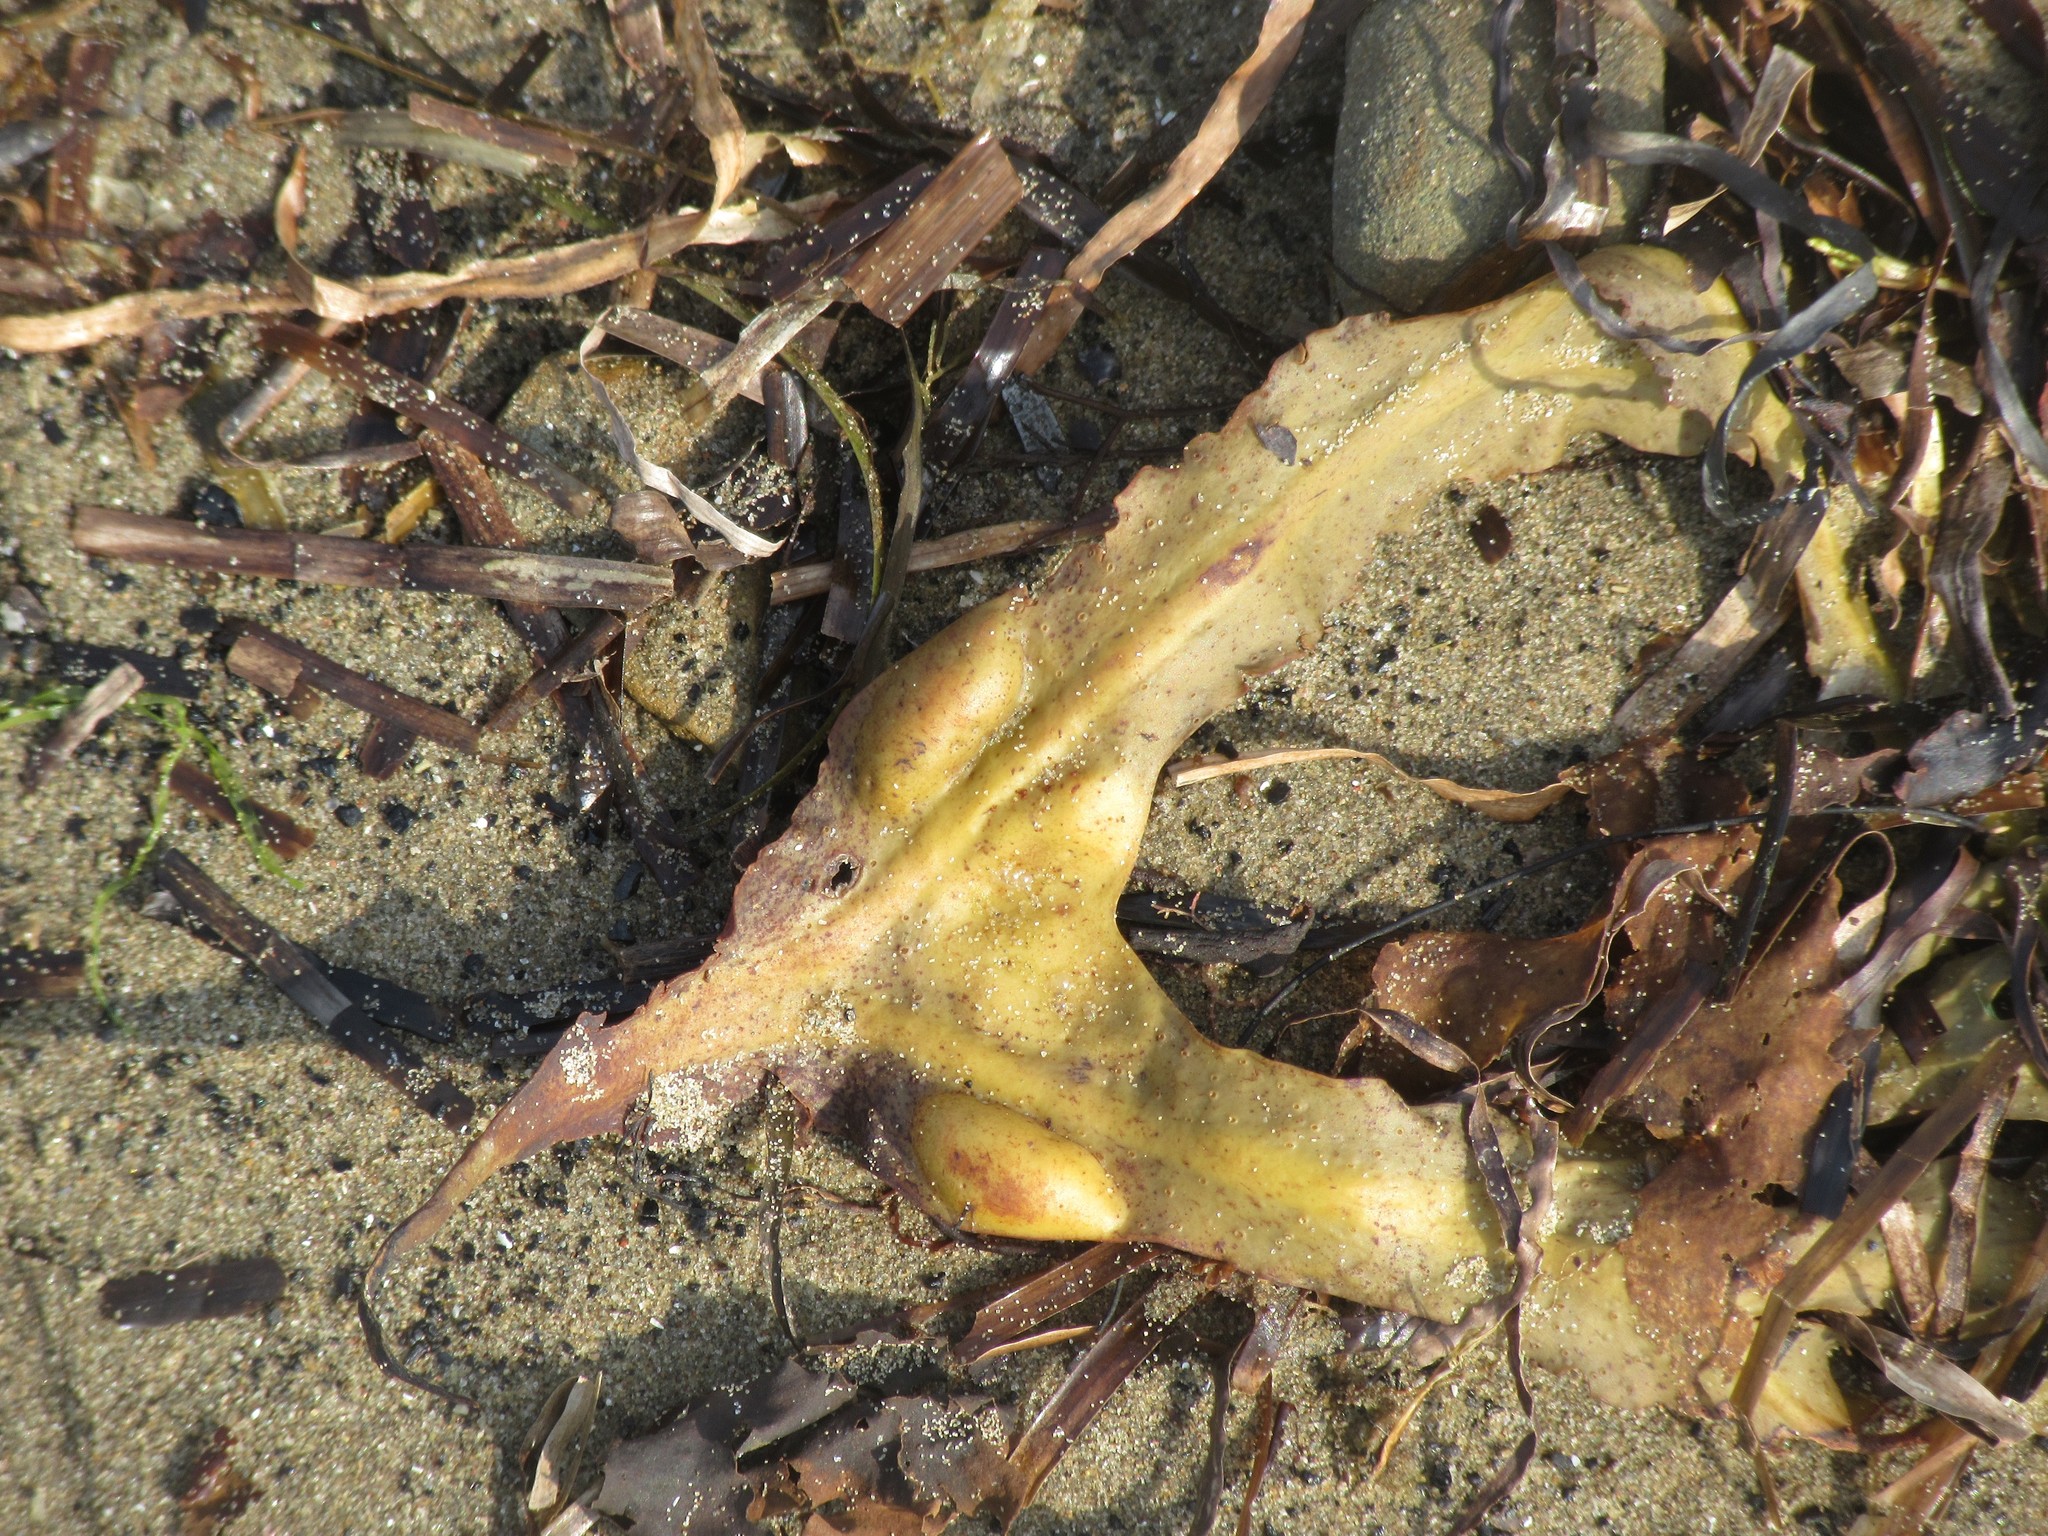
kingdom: Chromista
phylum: Ochrophyta
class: Phaeophyceae
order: Fucales
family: Fucaceae
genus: Fucus
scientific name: Fucus vesiculosus
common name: Bladder wrack
